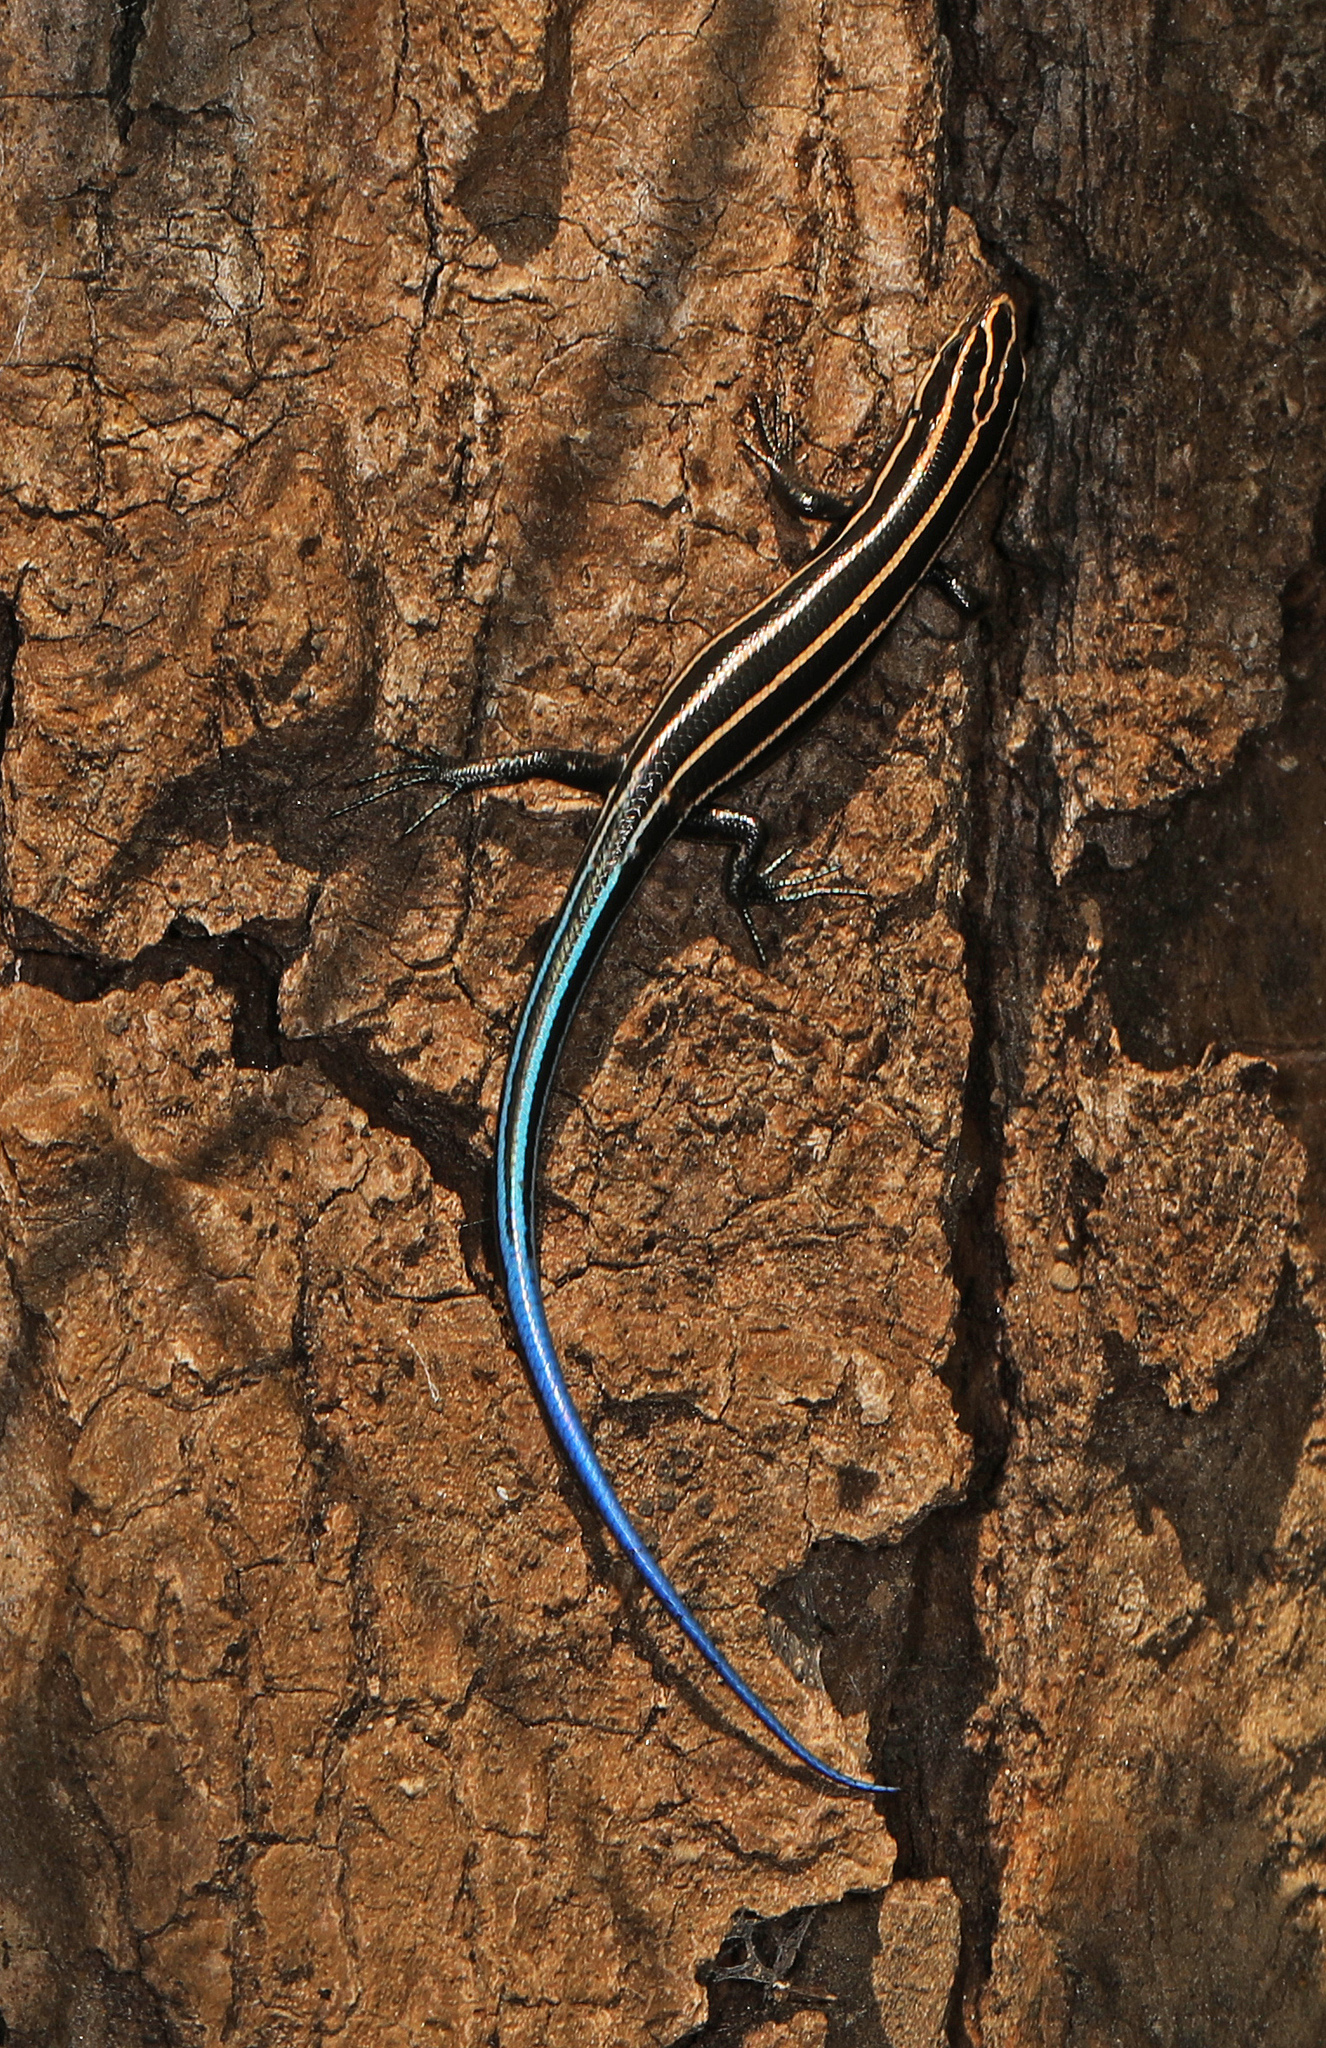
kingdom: Animalia
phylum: Chordata
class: Squamata
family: Scincidae
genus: Plestiodon
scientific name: Plestiodon fasciatus
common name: Five-lined skink
